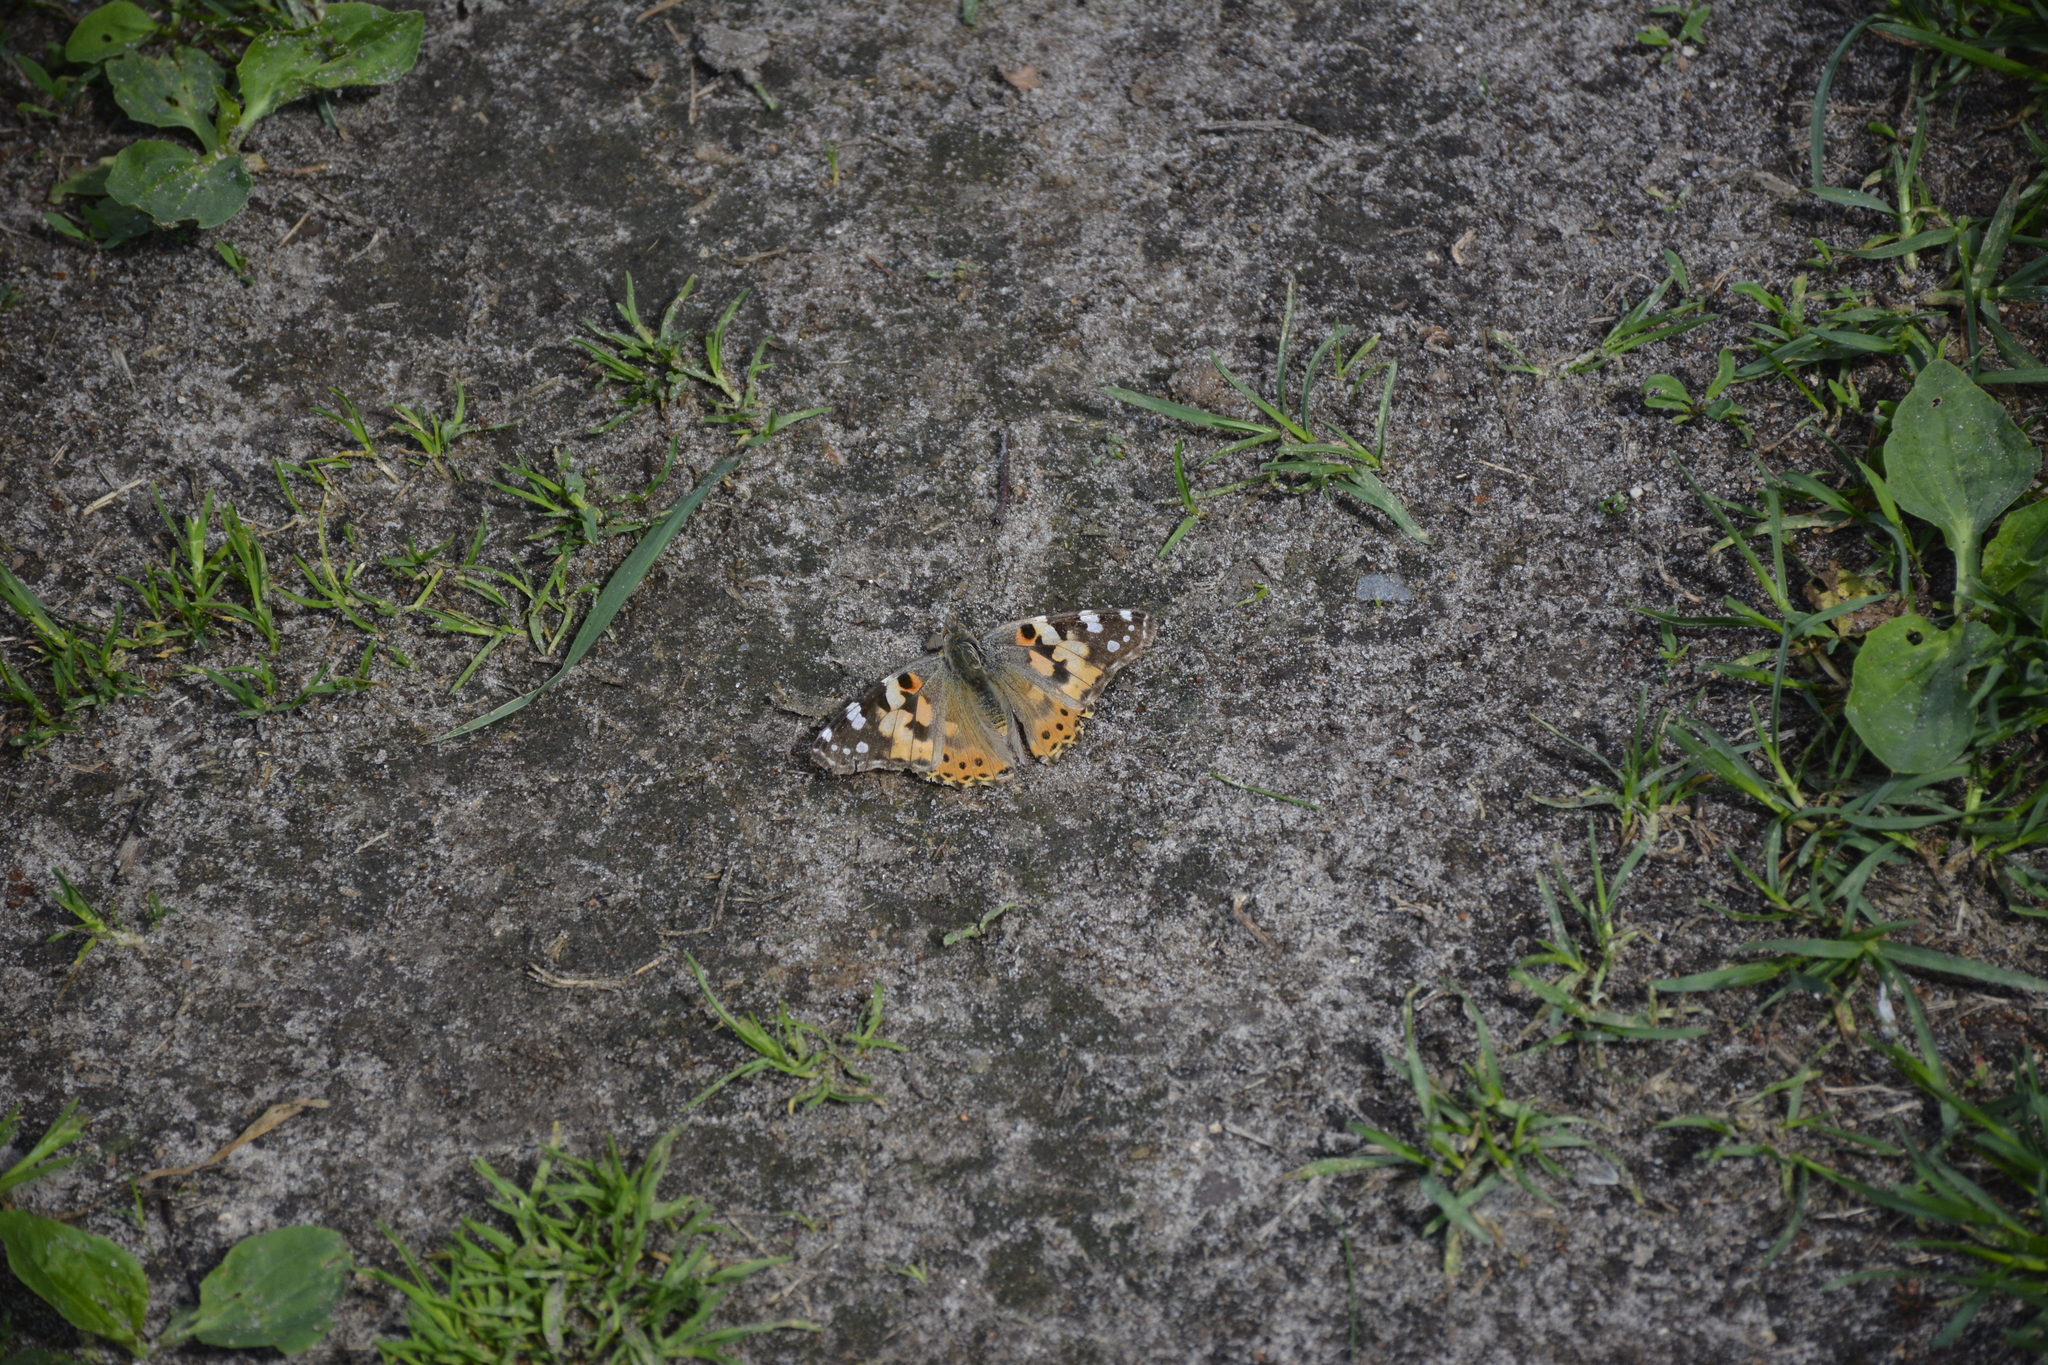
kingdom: Animalia
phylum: Arthropoda
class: Insecta
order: Lepidoptera
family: Nymphalidae
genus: Vanessa
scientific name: Vanessa cardui
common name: Painted lady
